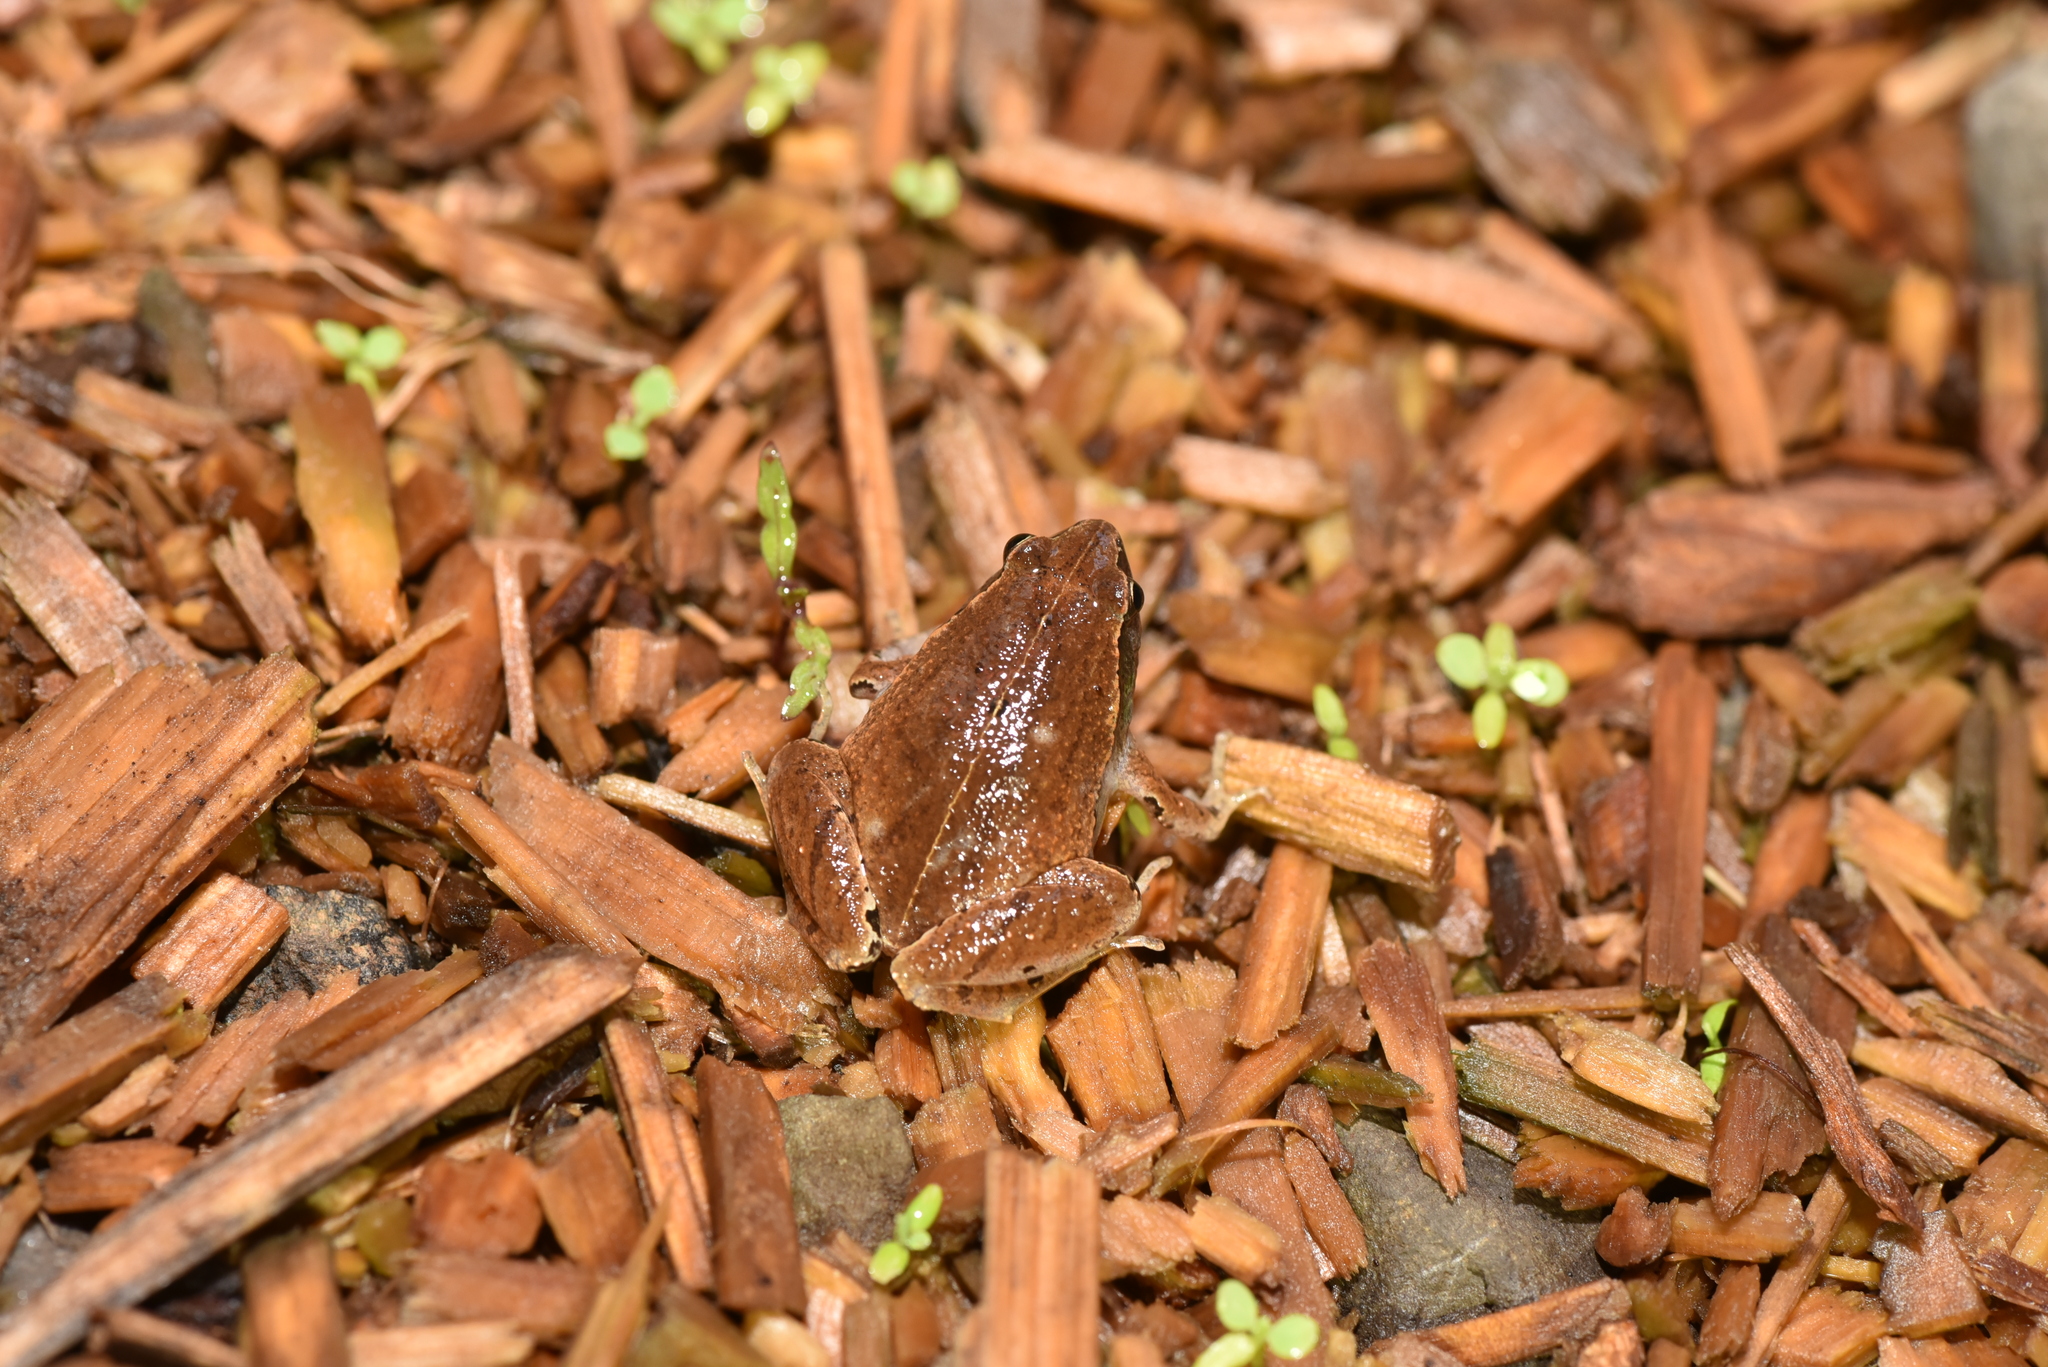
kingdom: Animalia
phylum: Chordata
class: Amphibia
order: Anura
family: Microhylidae
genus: Microhyla
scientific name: Microhyla heymonsi
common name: Taiwan rice frog,dark sided chorus frog
